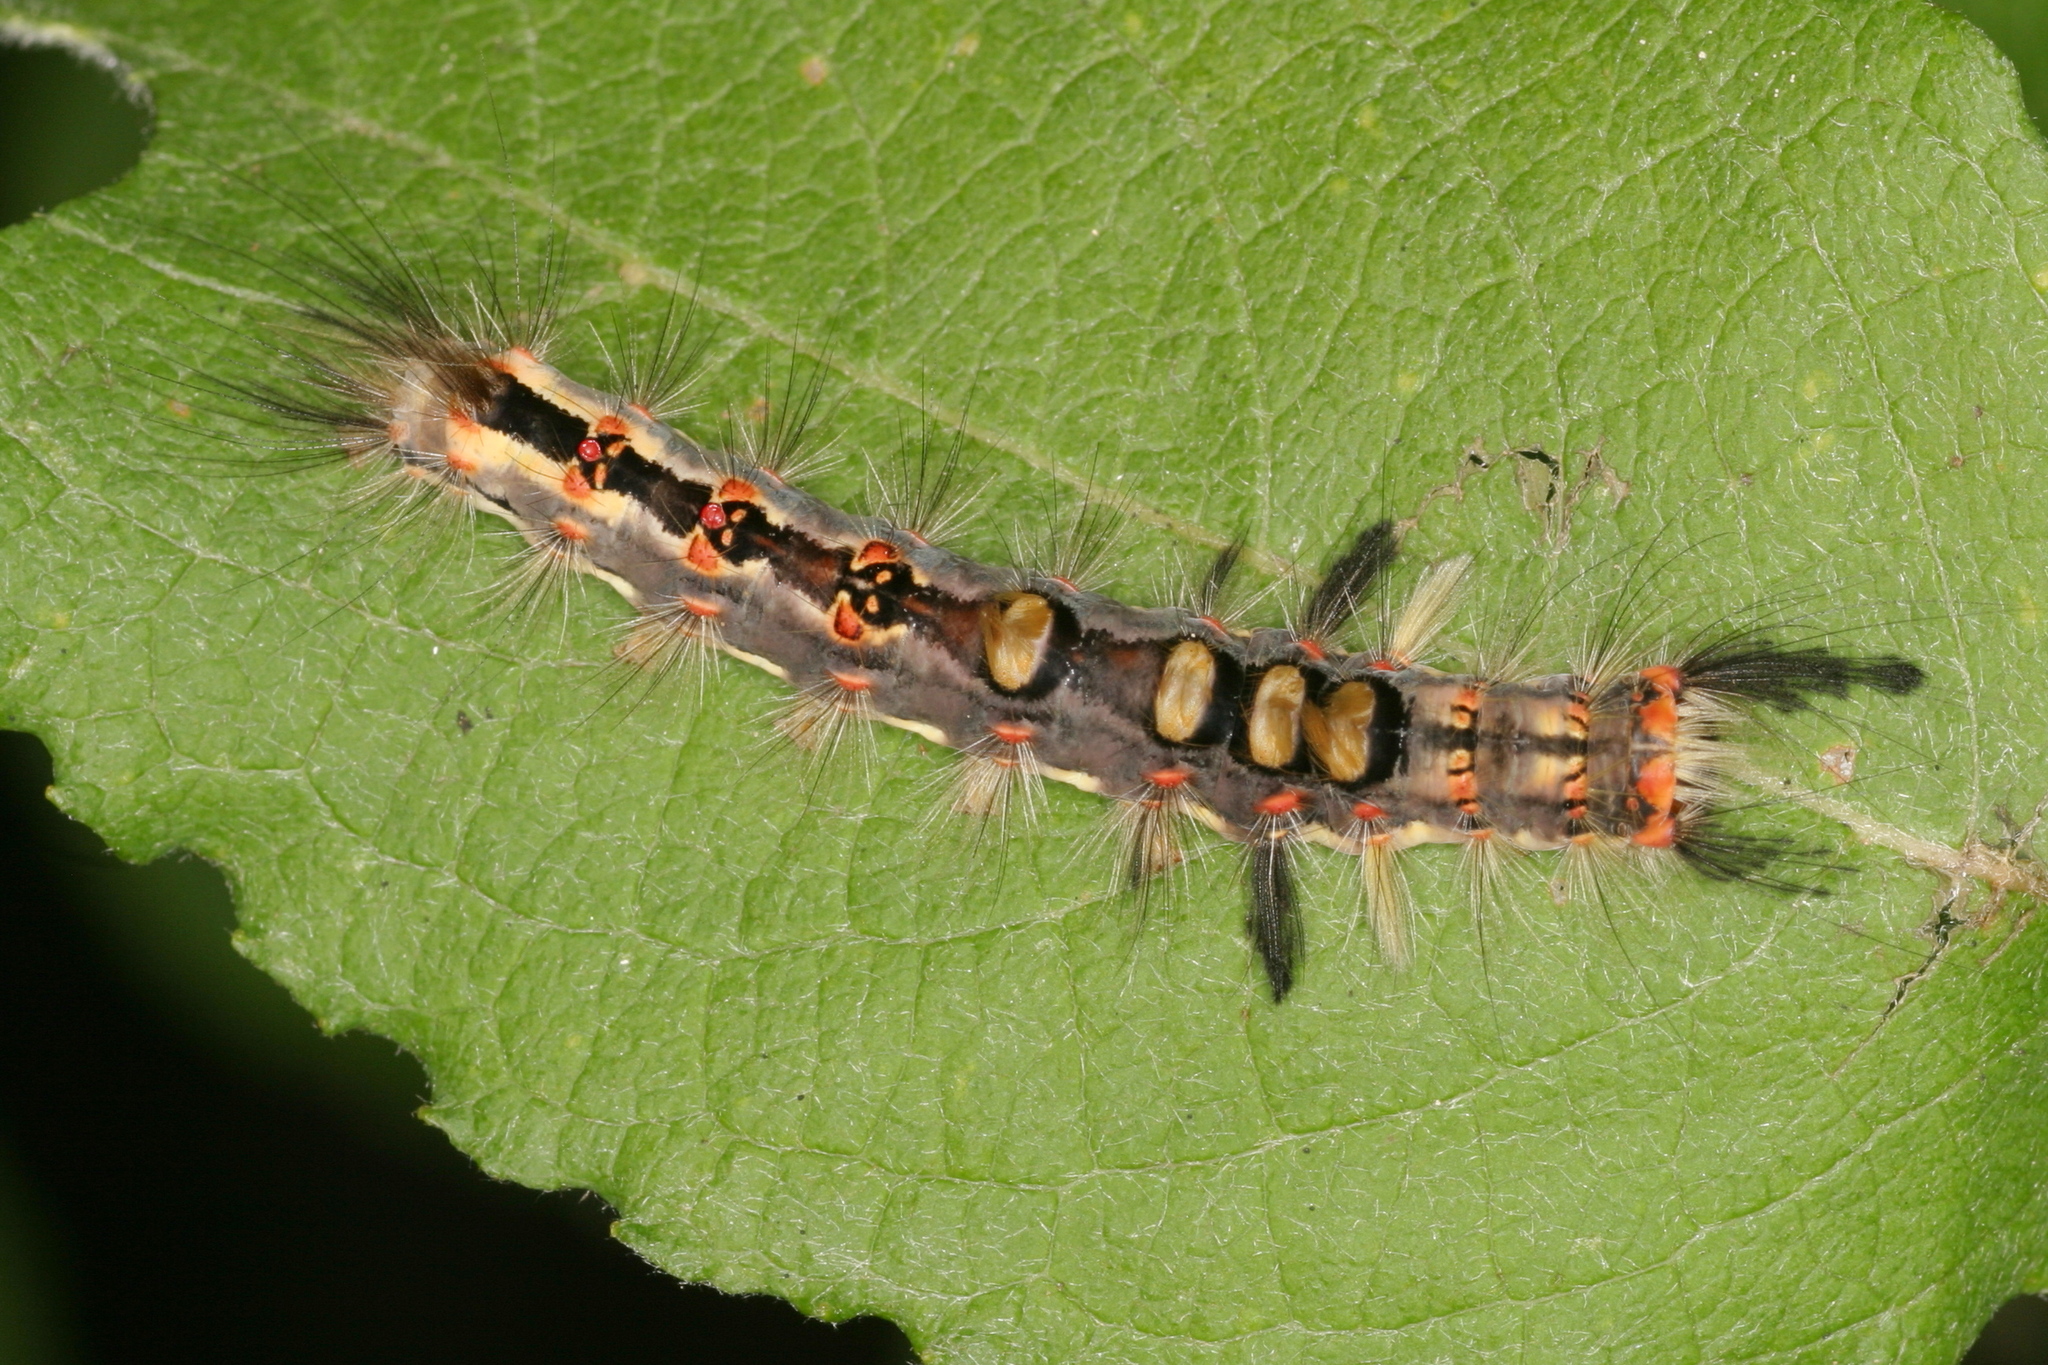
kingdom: Animalia
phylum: Arthropoda
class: Insecta
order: Lepidoptera
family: Erebidae
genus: Orgyia
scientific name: Orgyia antiqua
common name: Vapourer
